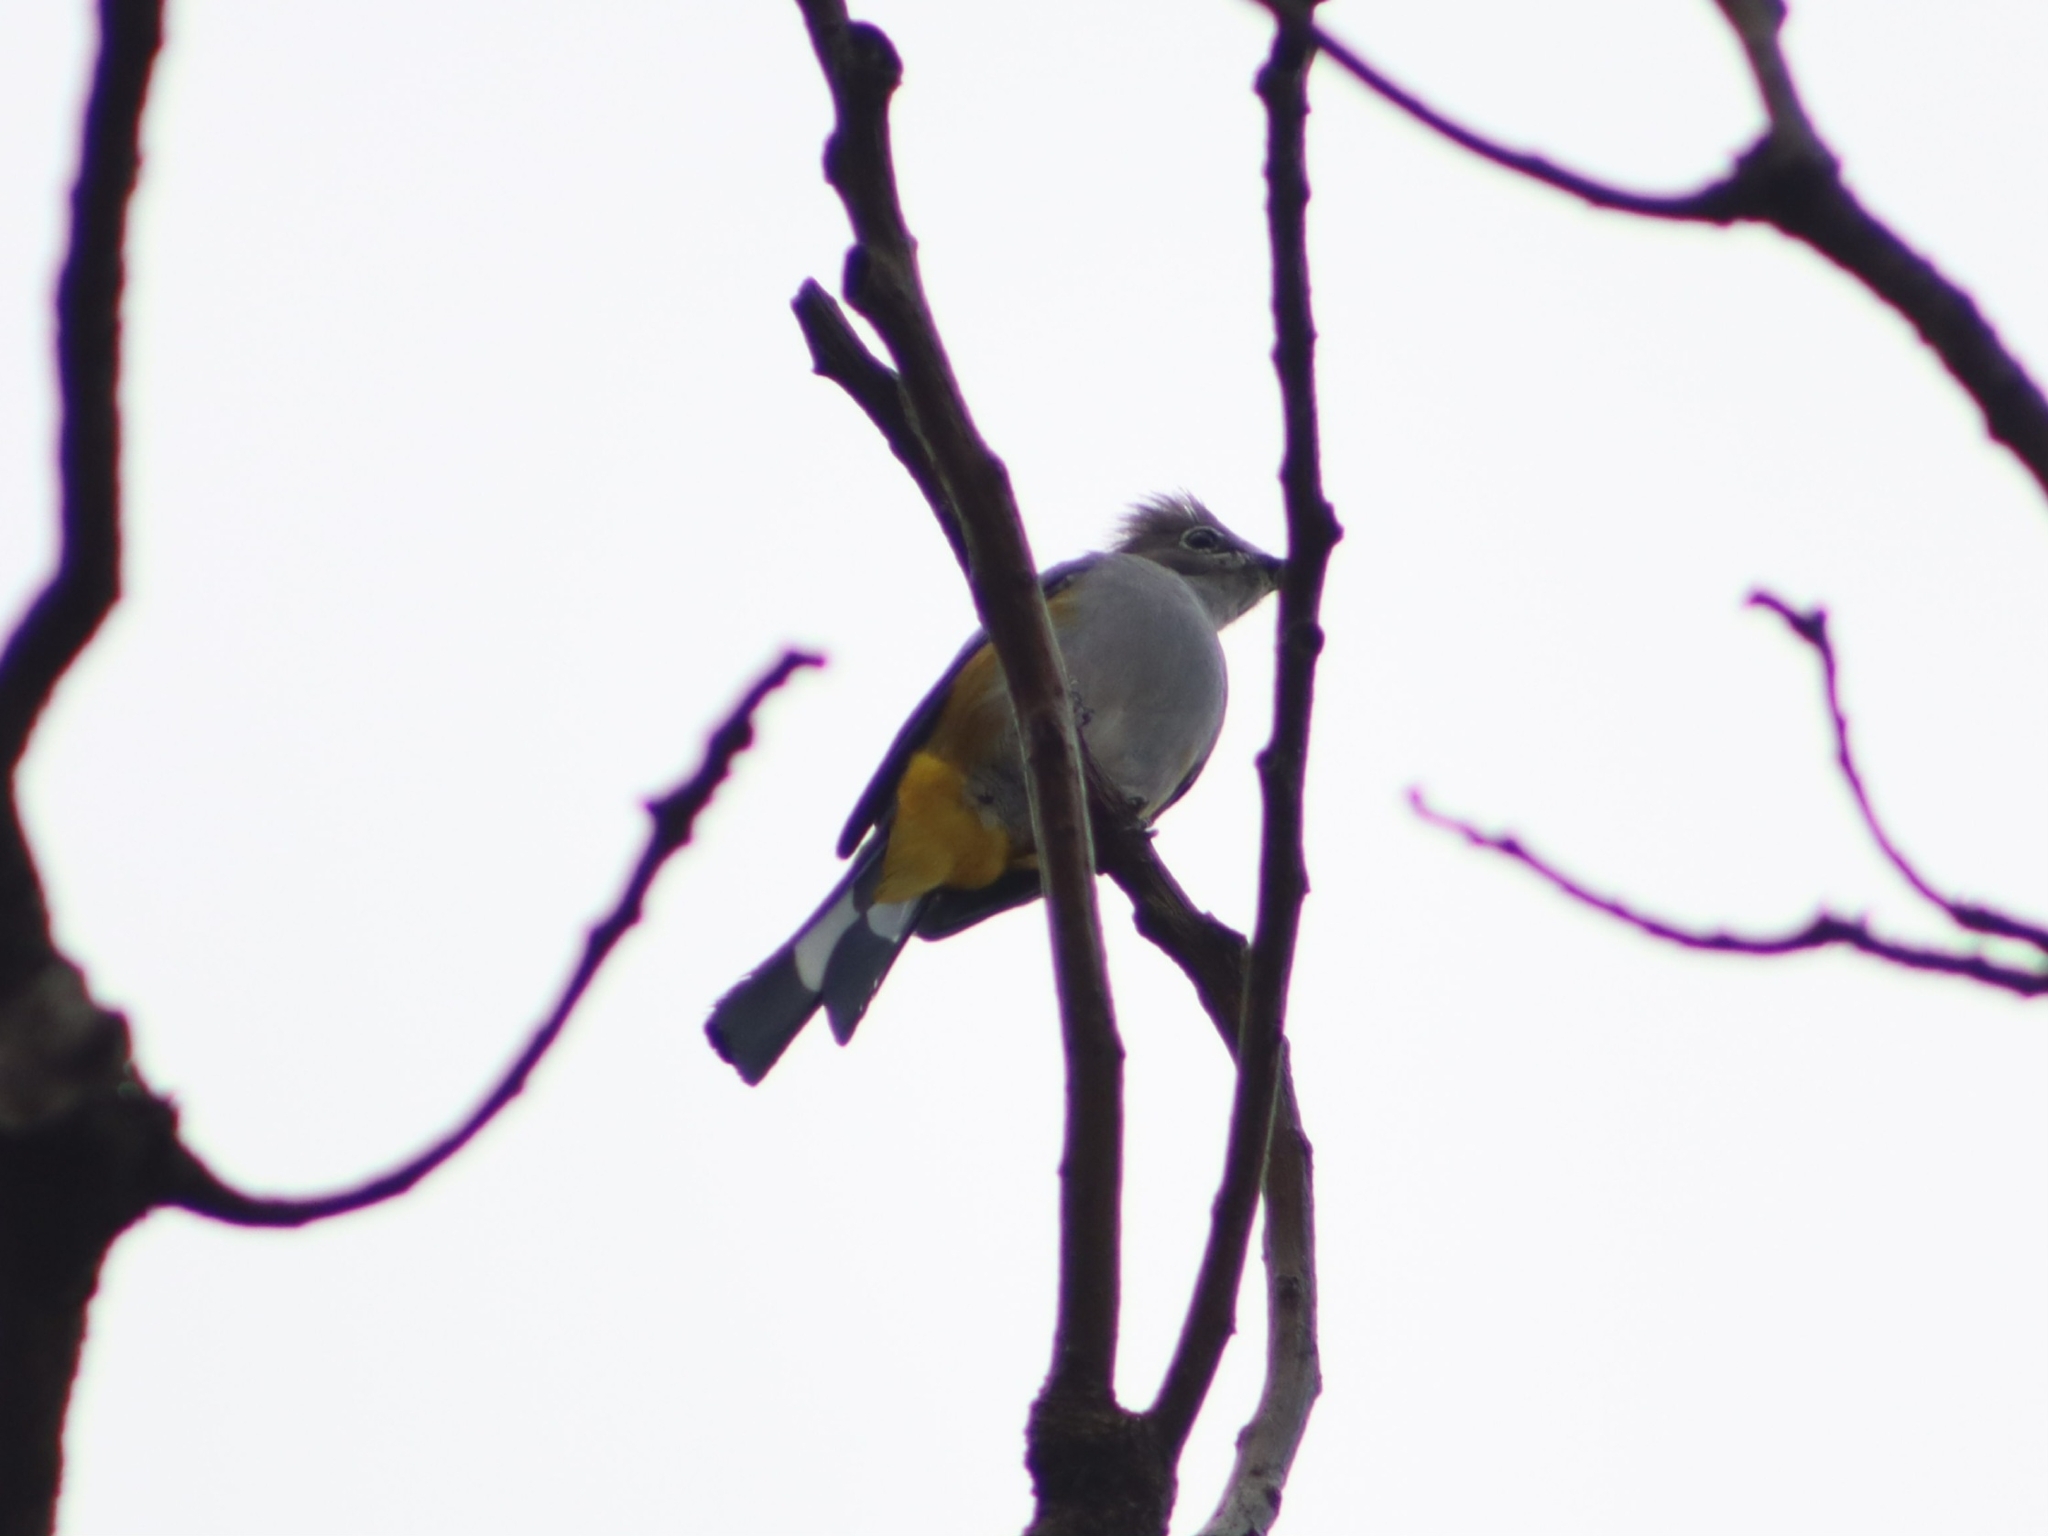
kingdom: Animalia
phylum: Chordata
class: Aves
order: Passeriformes
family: Ptilogonatidae
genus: Ptilogonys
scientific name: Ptilogonys cinereus
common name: Gray silky-flycatcher
